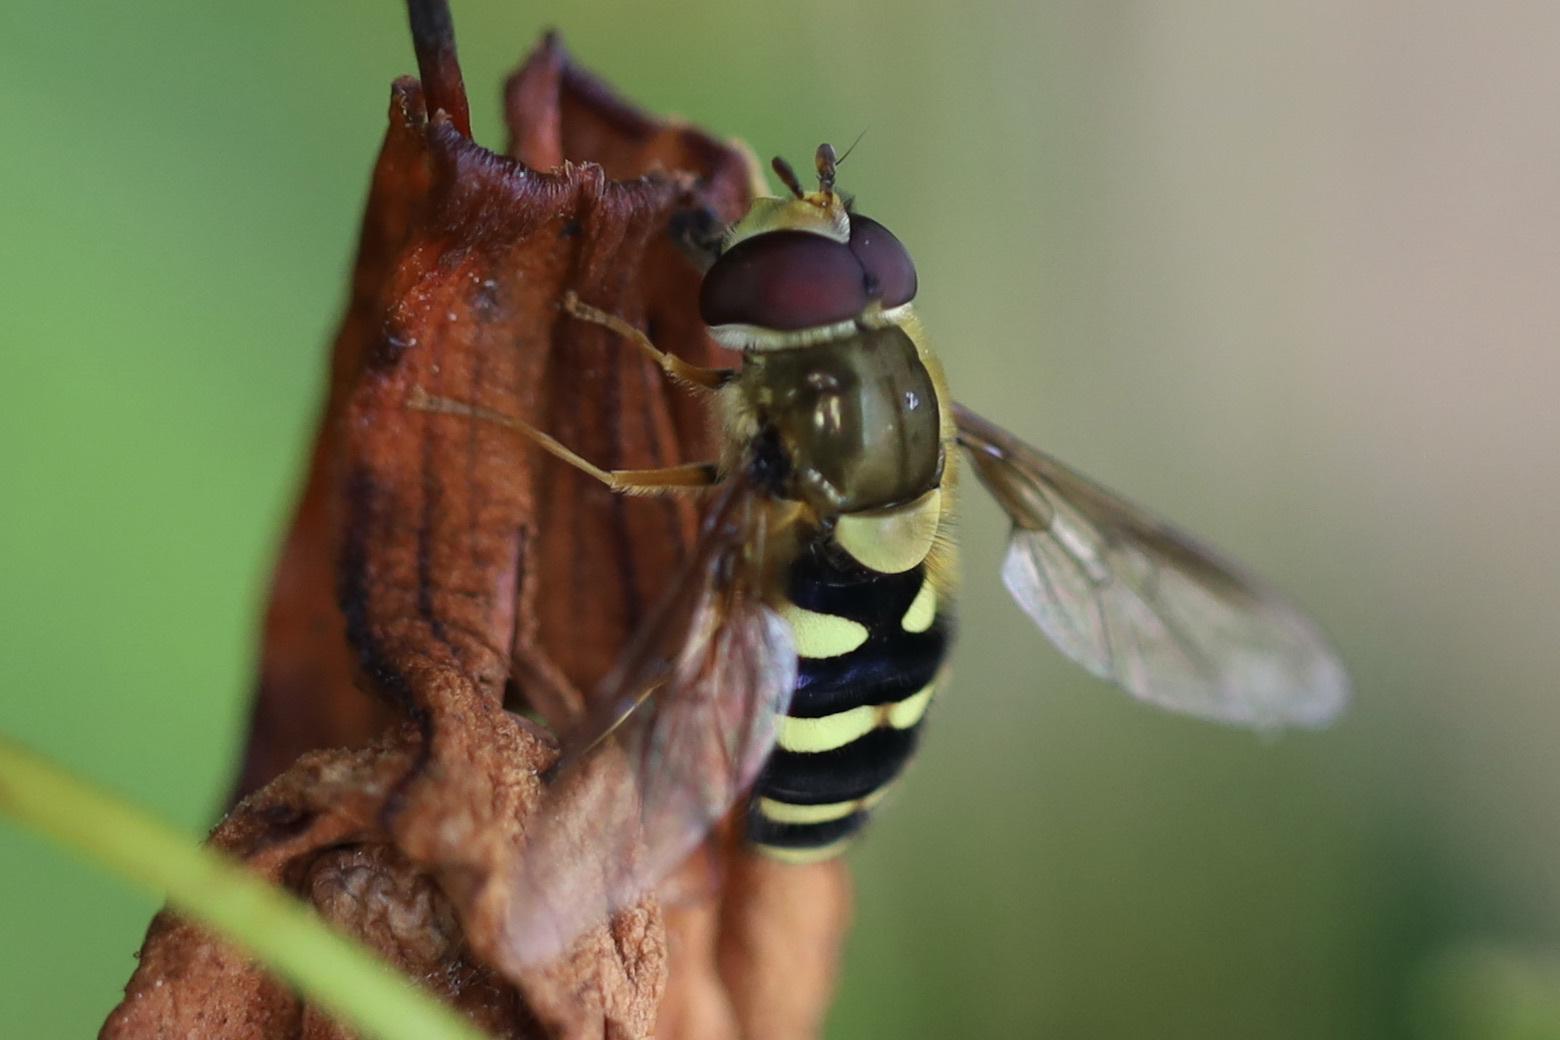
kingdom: Animalia
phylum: Arthropoda
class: Insecta
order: Diptera
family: Syrphidae
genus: Syrphus
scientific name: Syrphus opinator
